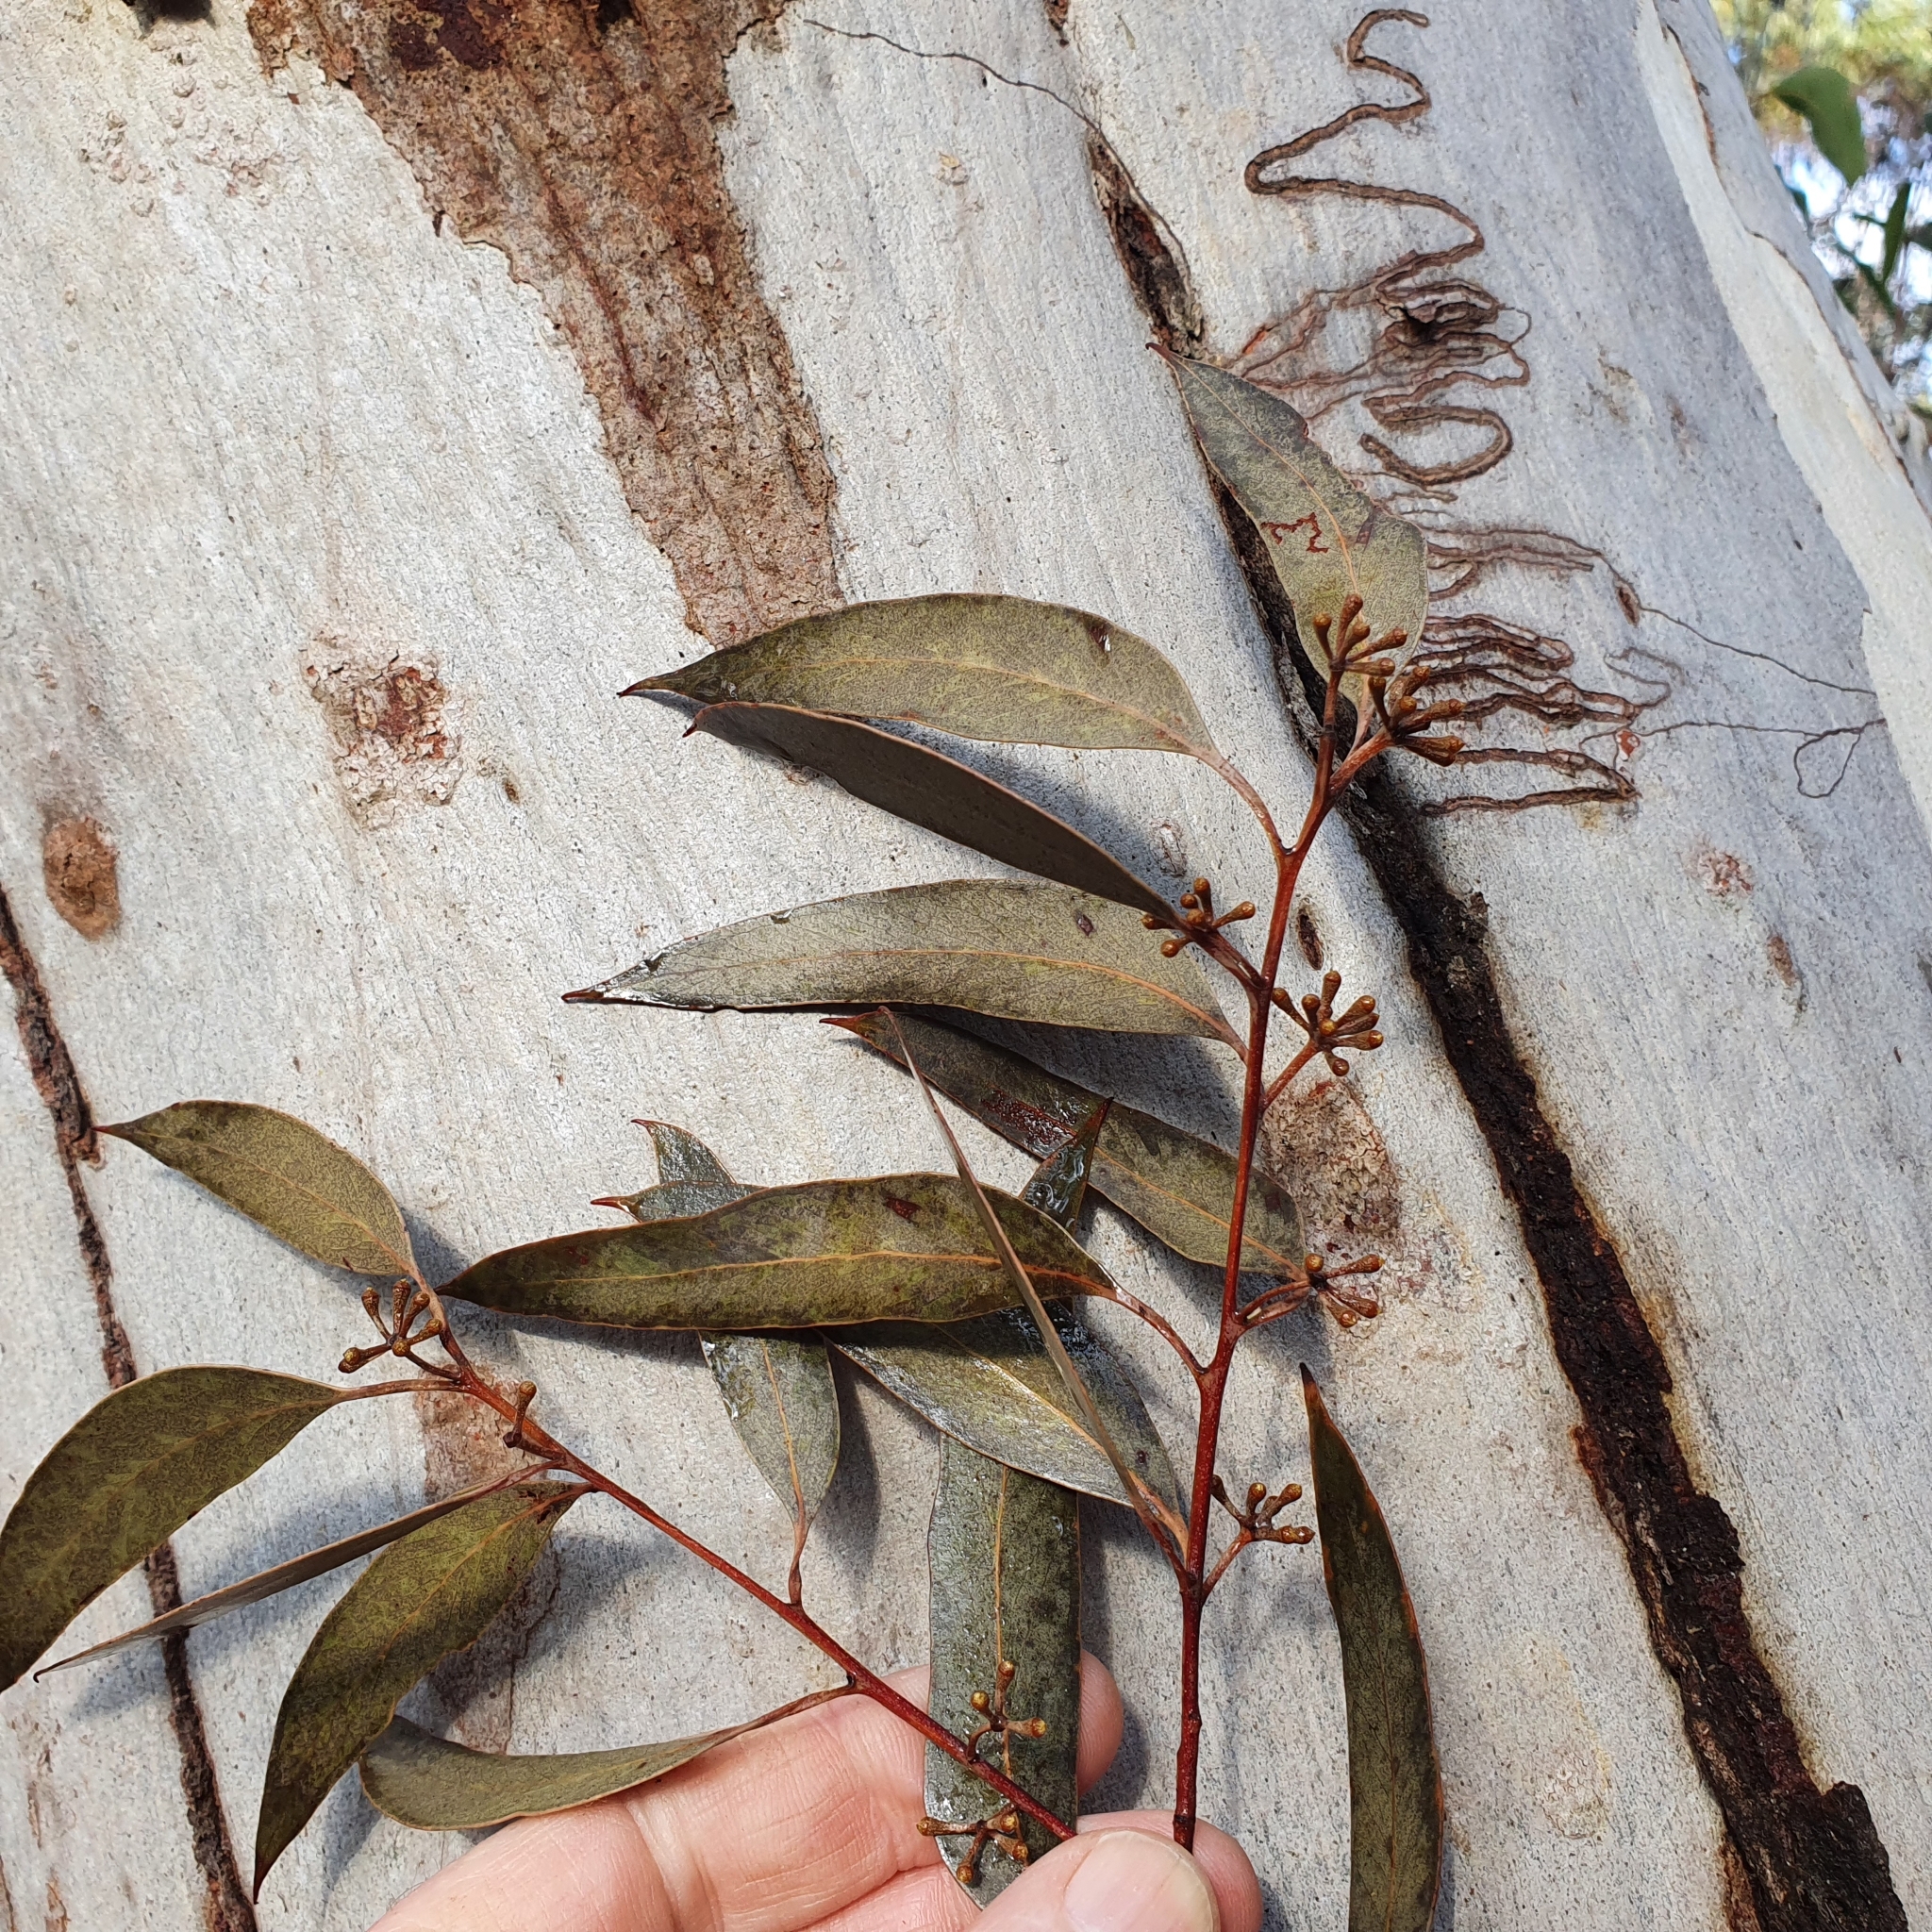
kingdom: Plantae
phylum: Tracheophyta
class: Magnoliopsida
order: Myrtales
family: Myrtaceae
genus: Eucalyptus
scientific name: Eucalyptus haemastoma
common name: Scribbly-gum
